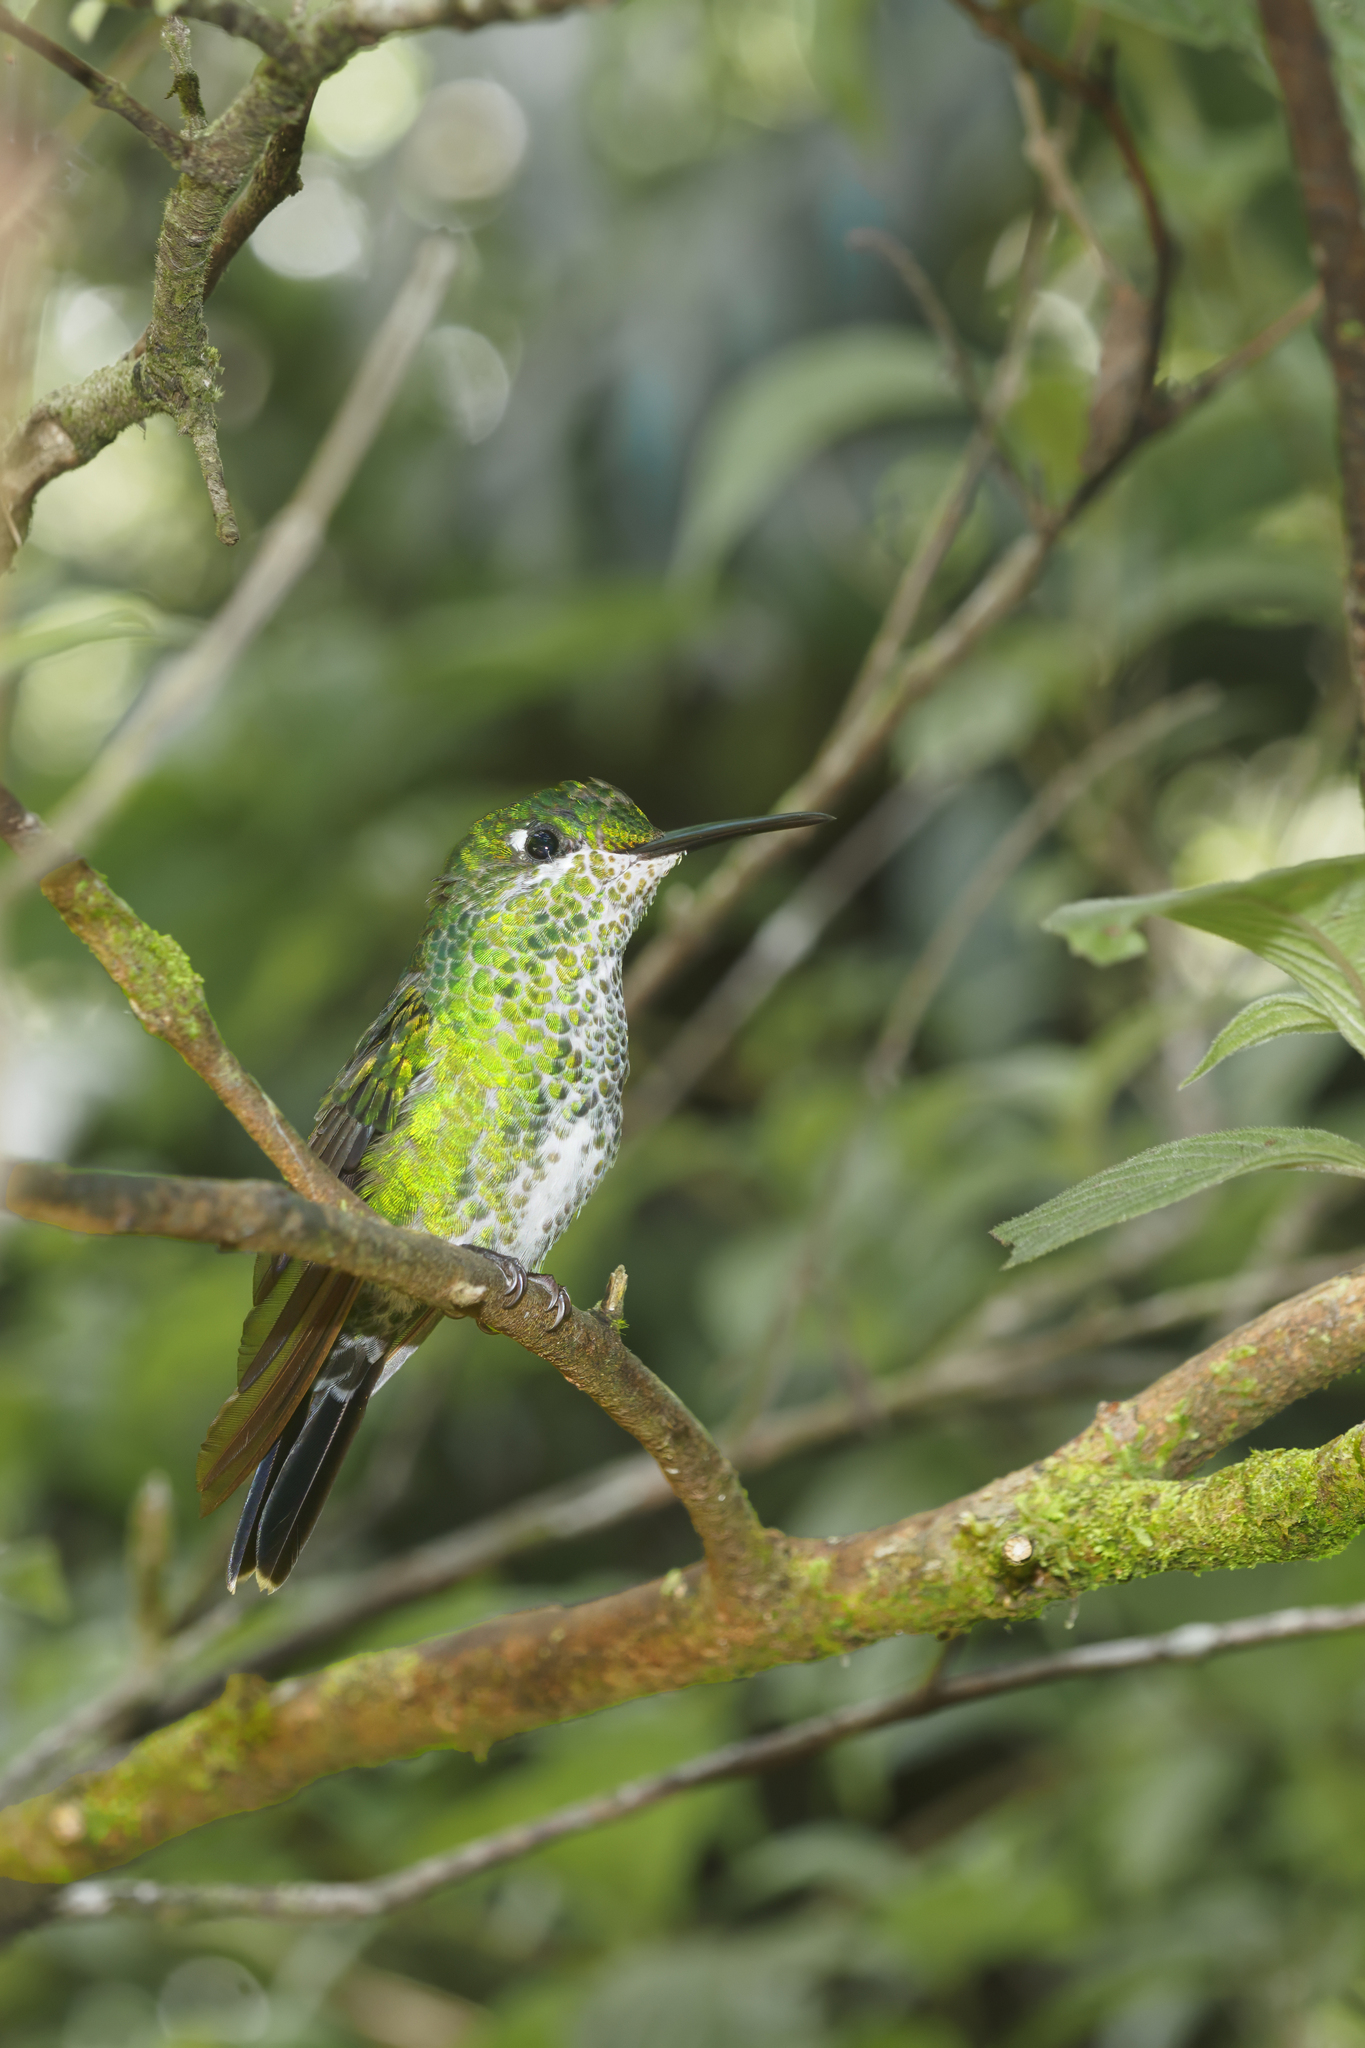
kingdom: Animalia
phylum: Chordata
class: Aves
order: Apodiformes
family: Trochilidae
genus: Heliodoxa
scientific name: Heliodoxa jacula
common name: Green-crowned brilliant
